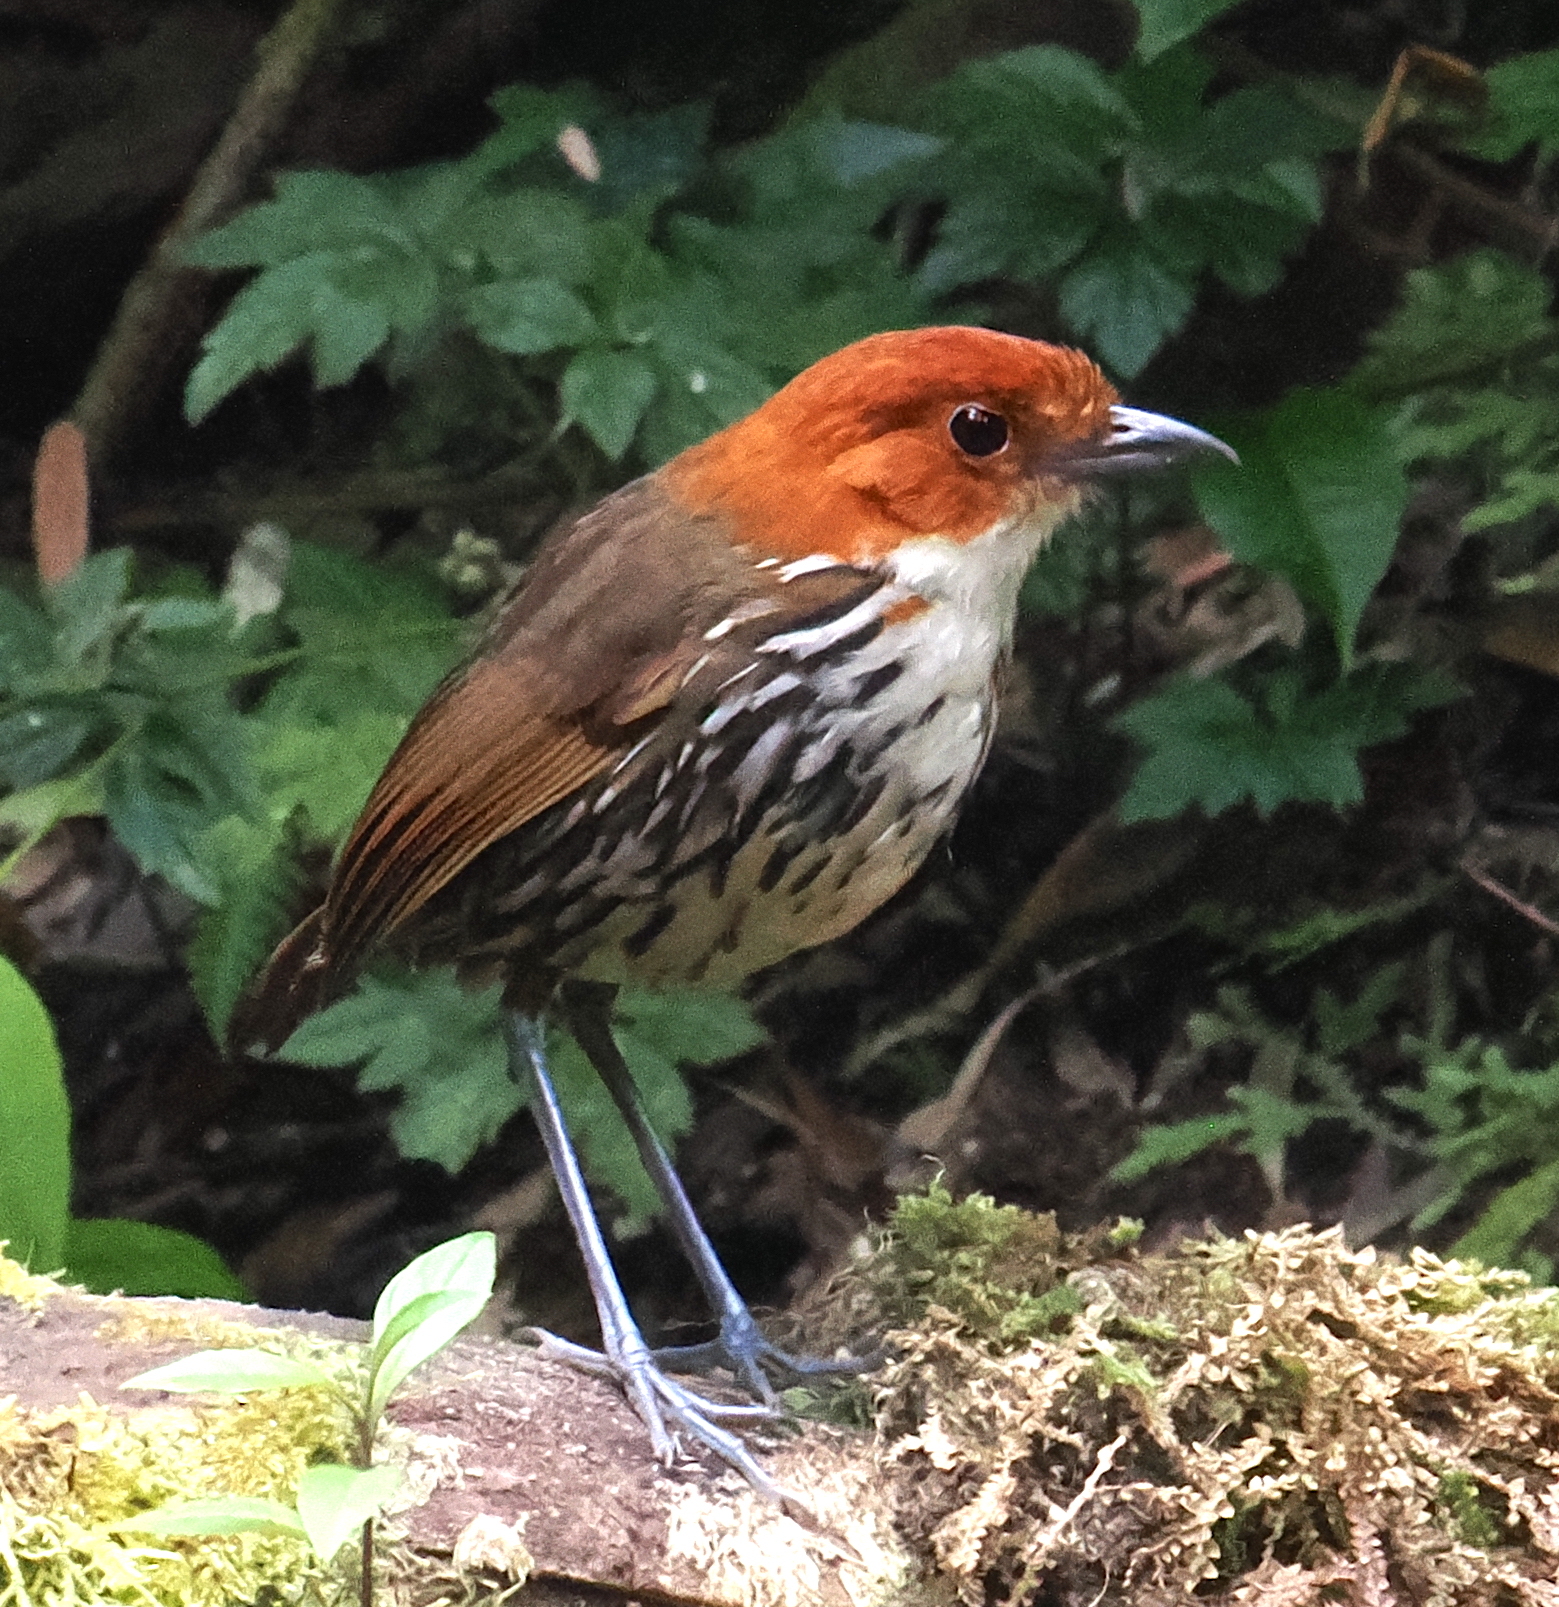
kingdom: Animalia
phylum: Chordata
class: Aves
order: Passeriformes
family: Grallariidae
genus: Grallaria
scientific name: Grallaria ruficapilla
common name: Chestnut-crowned antpitta
